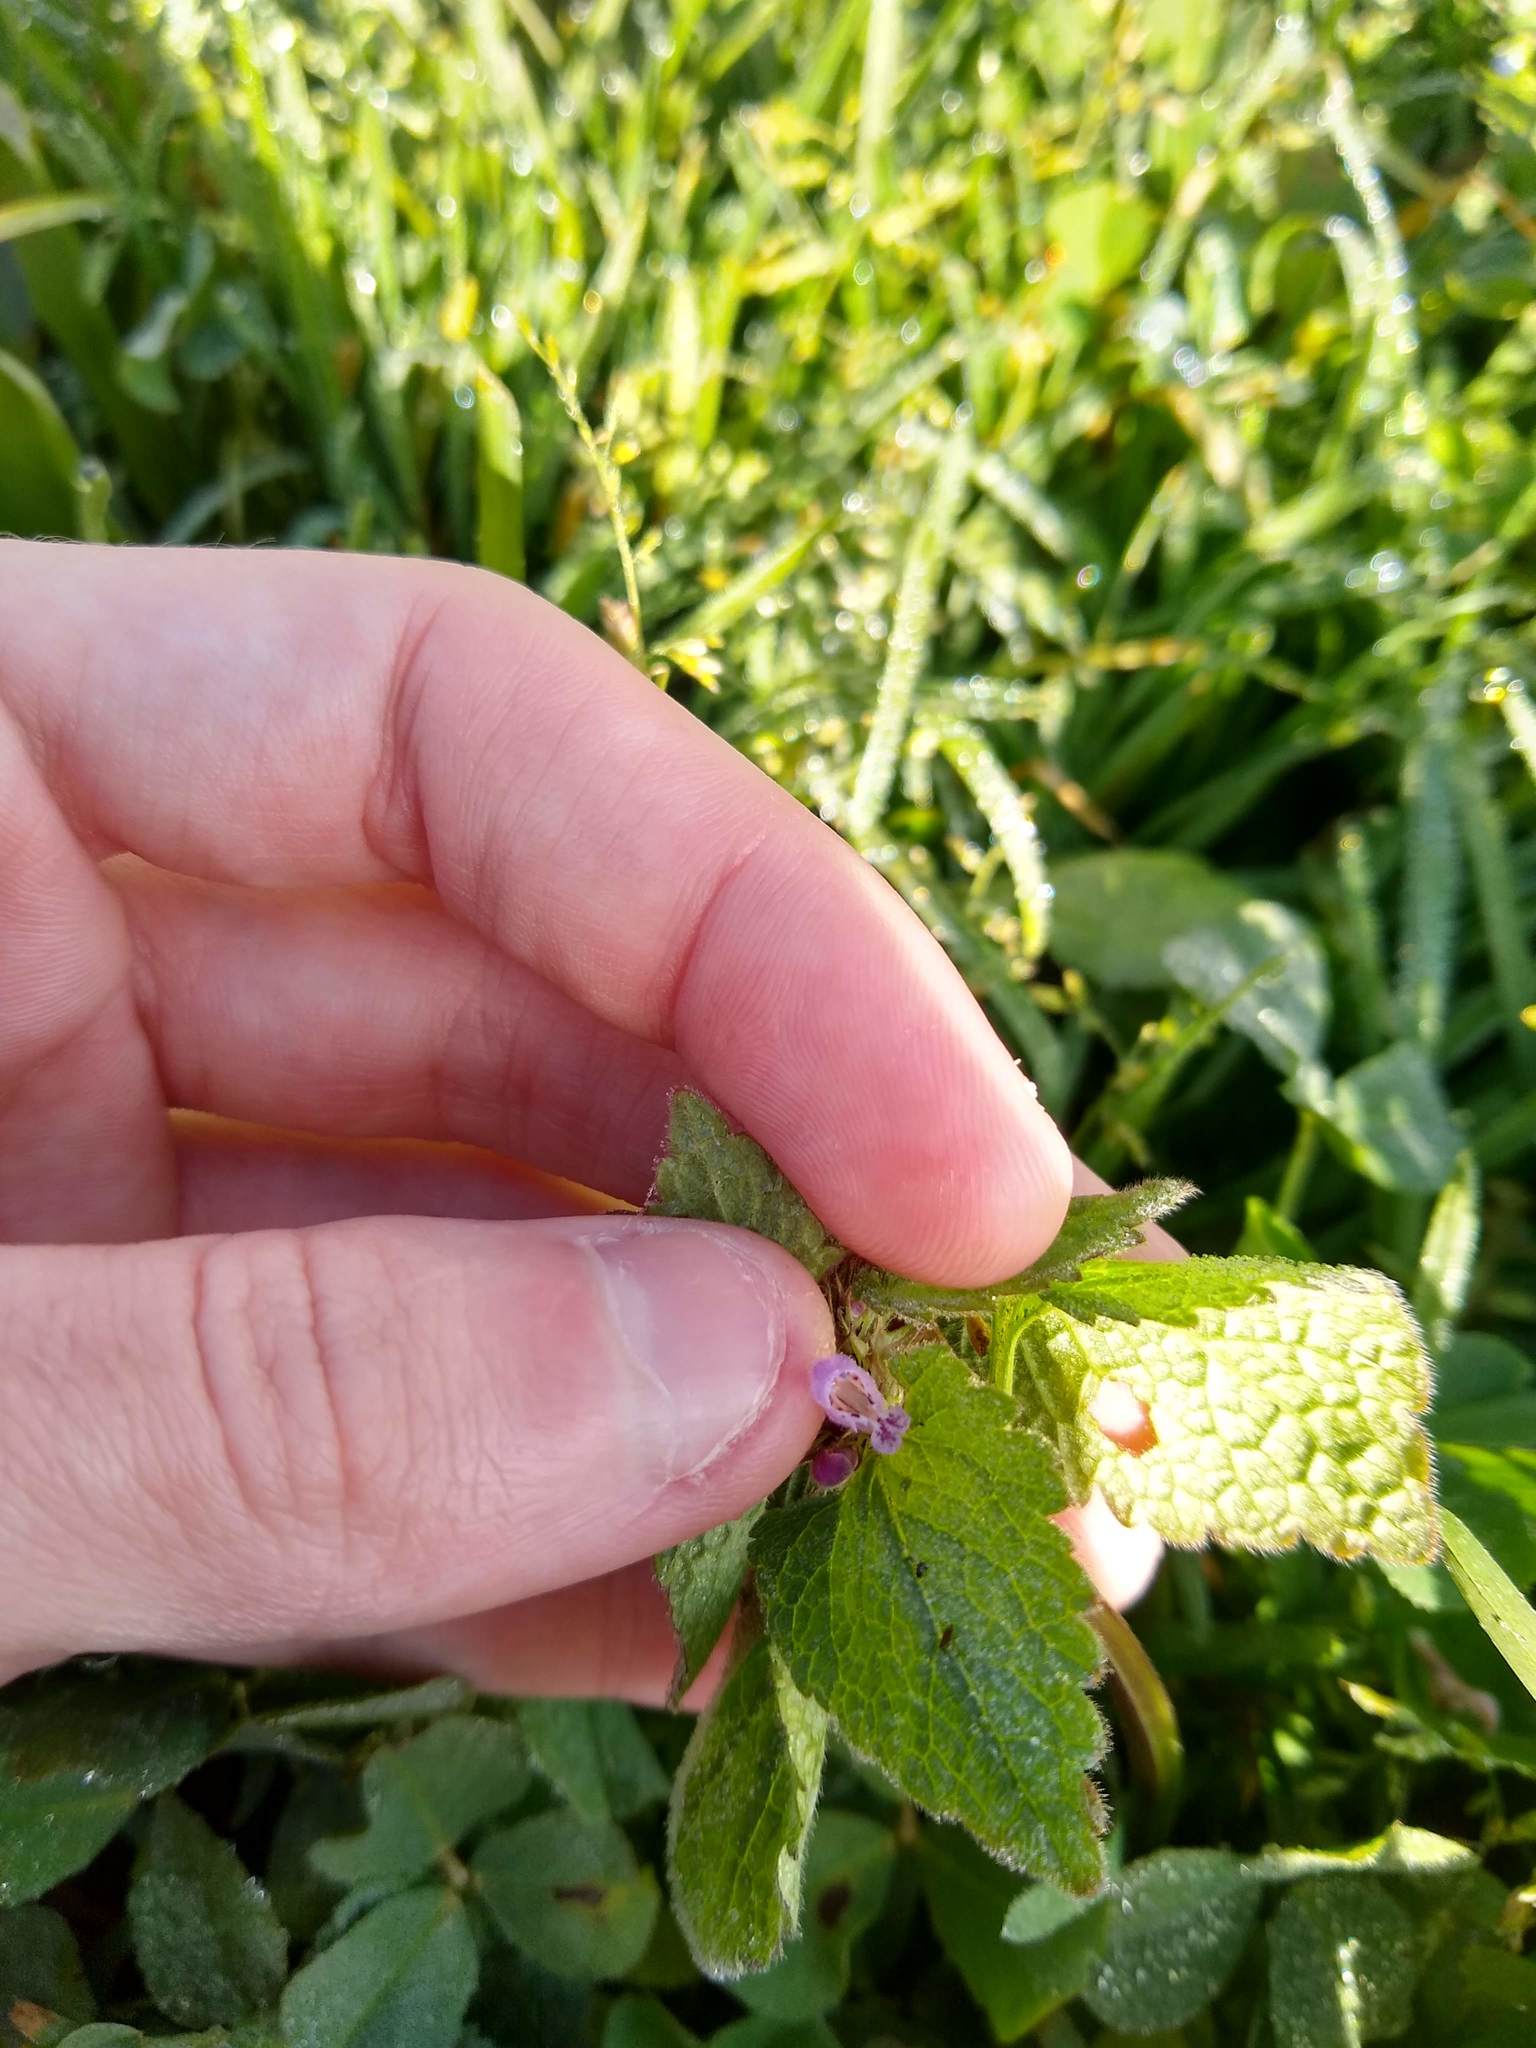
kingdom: Plantae
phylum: Tracheophyta
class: Magnoliopsida
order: Lamiales
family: Lamiaceae
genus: Lamium
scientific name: Lamium purpureum
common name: Red dead-nettle
